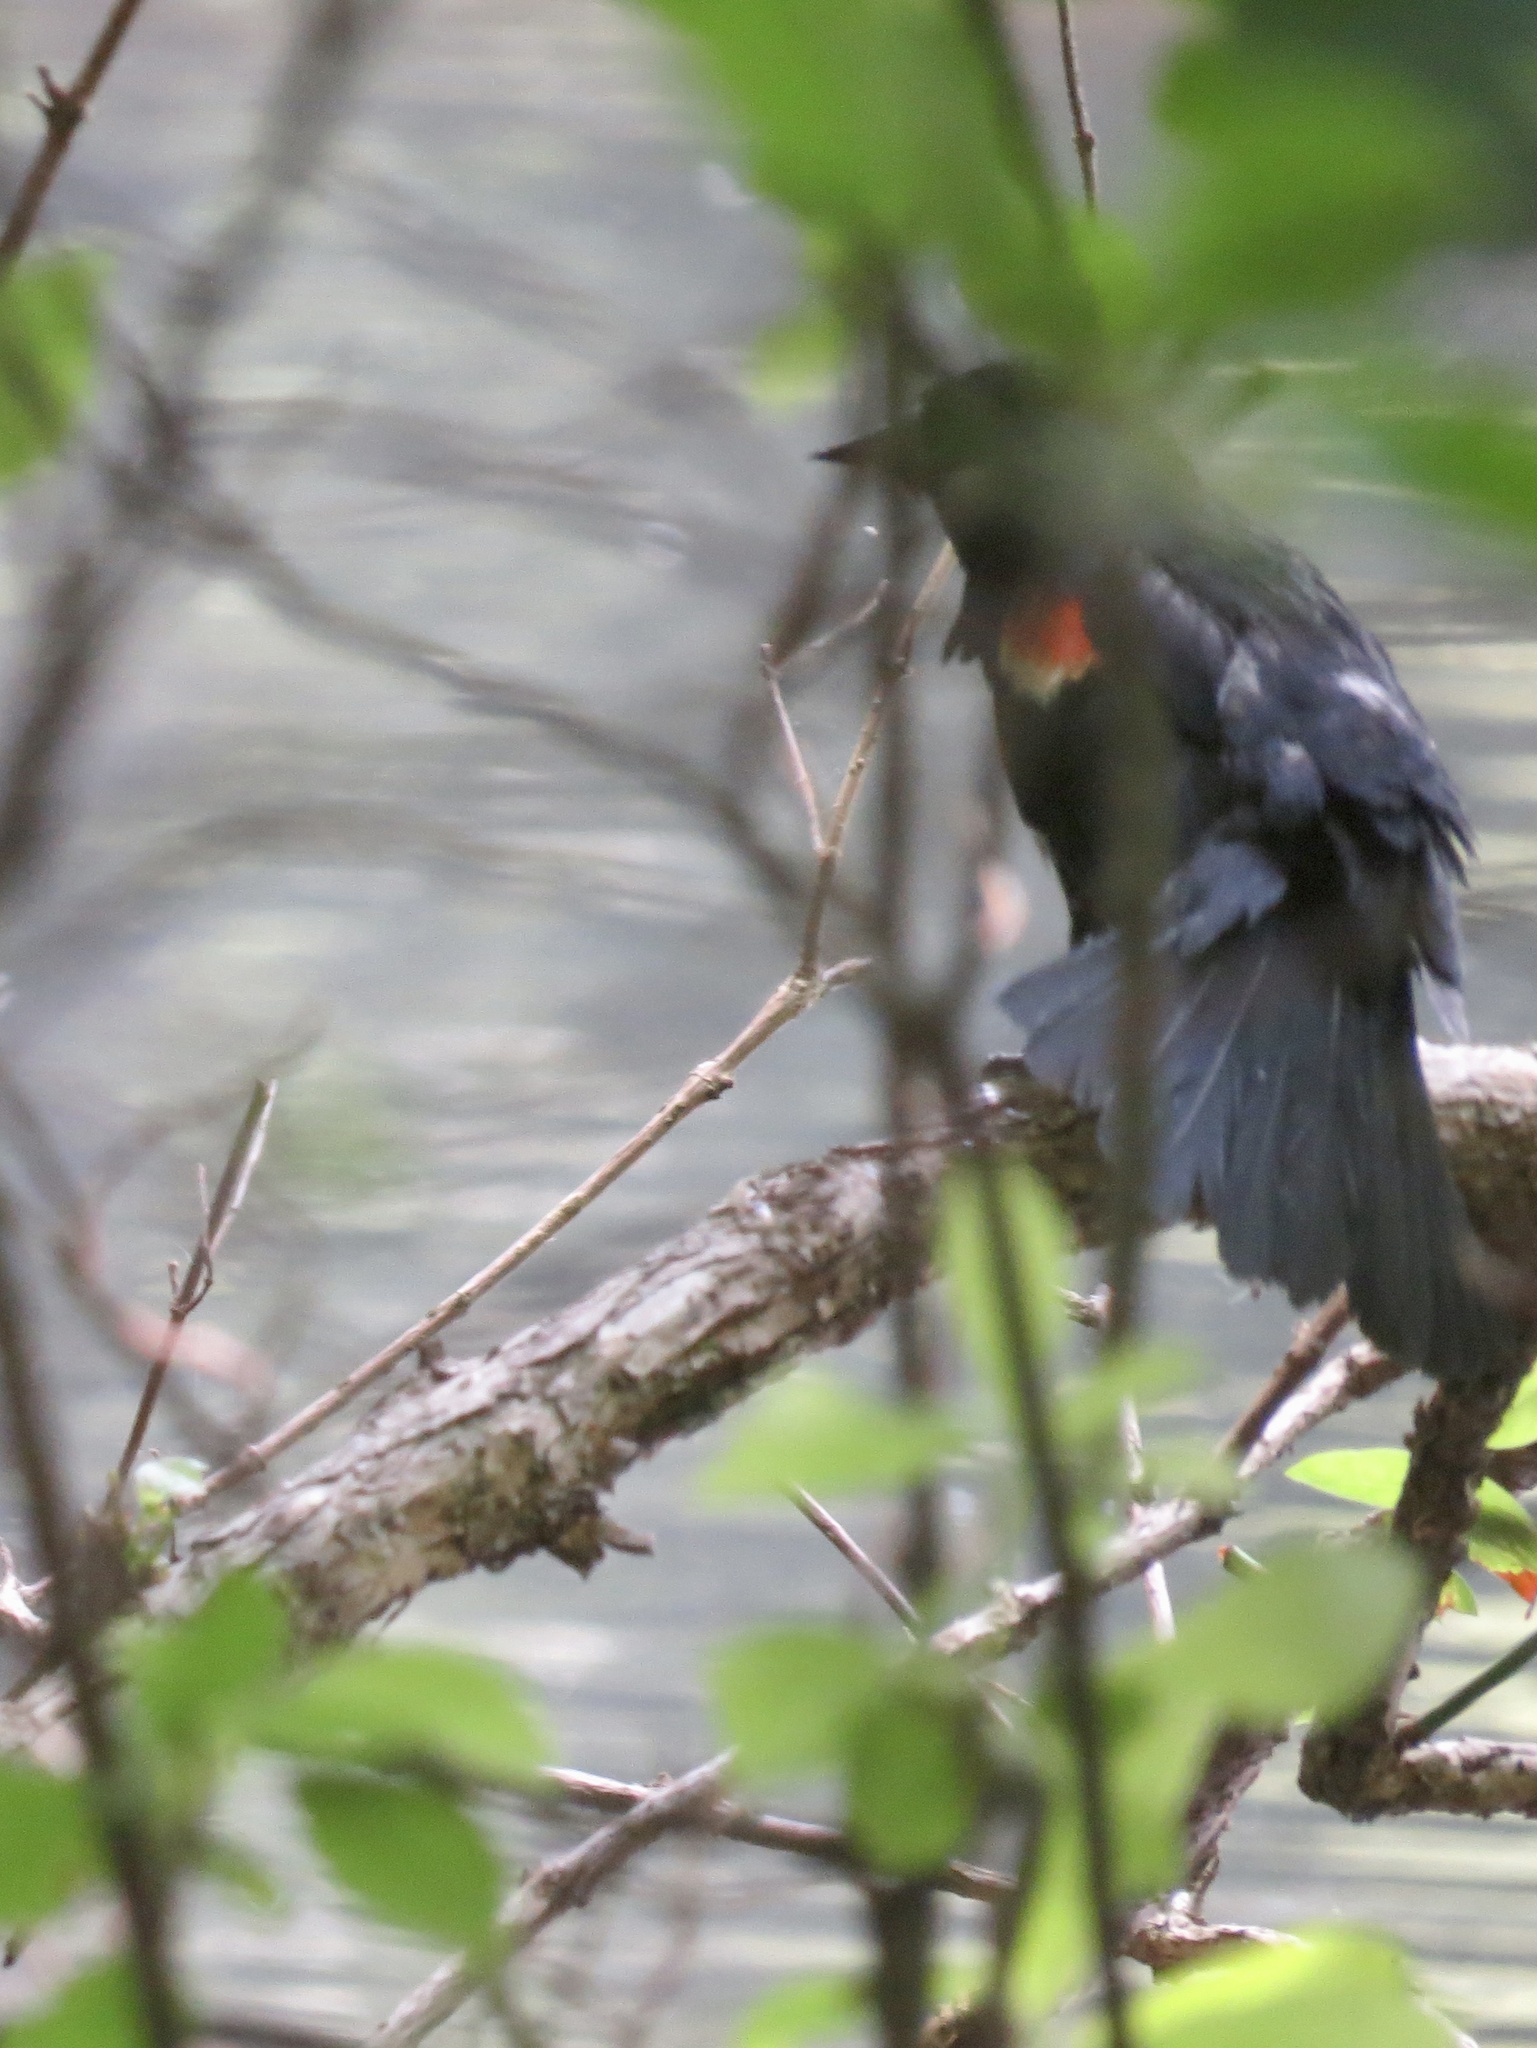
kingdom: Animalia
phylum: Chordata
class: Aves
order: Passeriformes
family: Icteridae
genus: Agelaius
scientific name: Agelaius phoeniceus
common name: Red-winged blackbird
